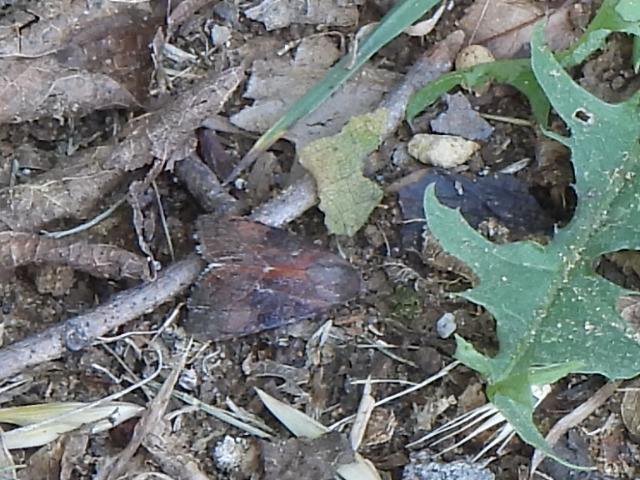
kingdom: Animalia
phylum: Arthropoda
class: Insecta
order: Lepidoptera
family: Noctuidae
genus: Galgula
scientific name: Galgula partita
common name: Wedgeling
